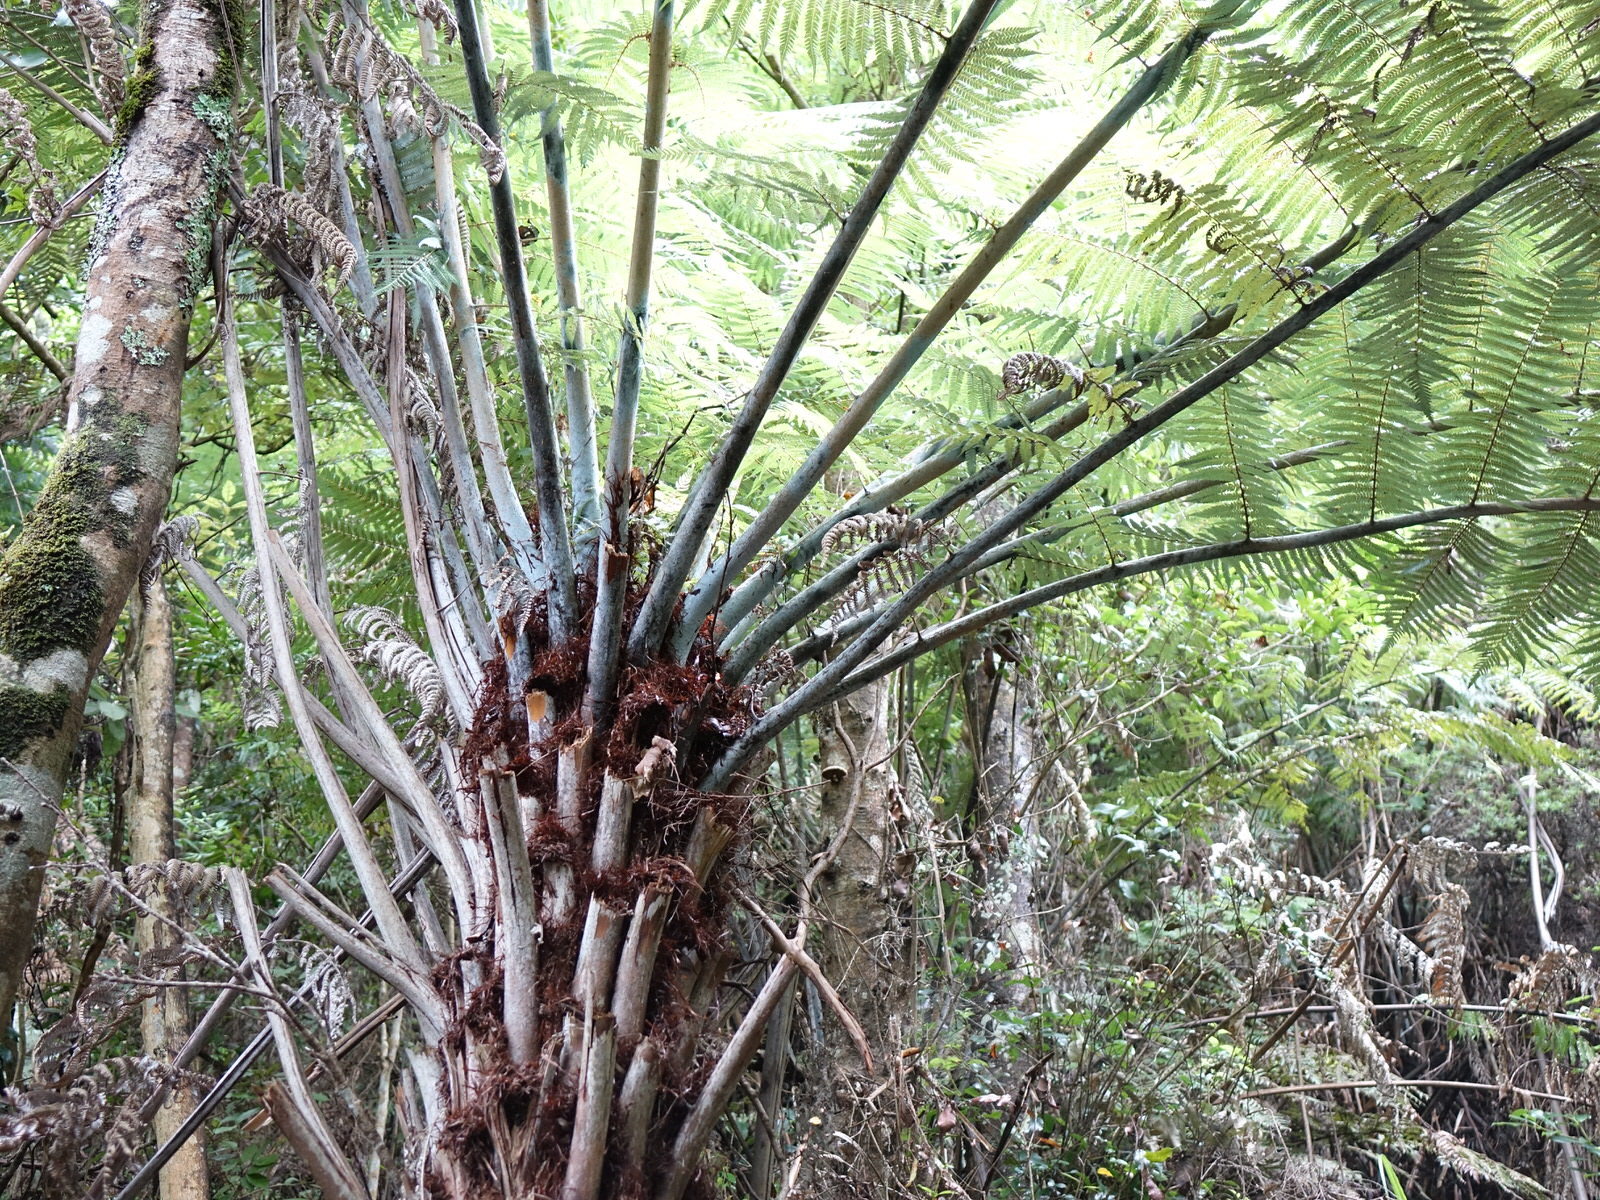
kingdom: Plantae
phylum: Tracheophyta
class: Polypodiopsida
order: Cyatheales
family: Cyatheaceae
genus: Alsophila
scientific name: Alsophila dealbata
